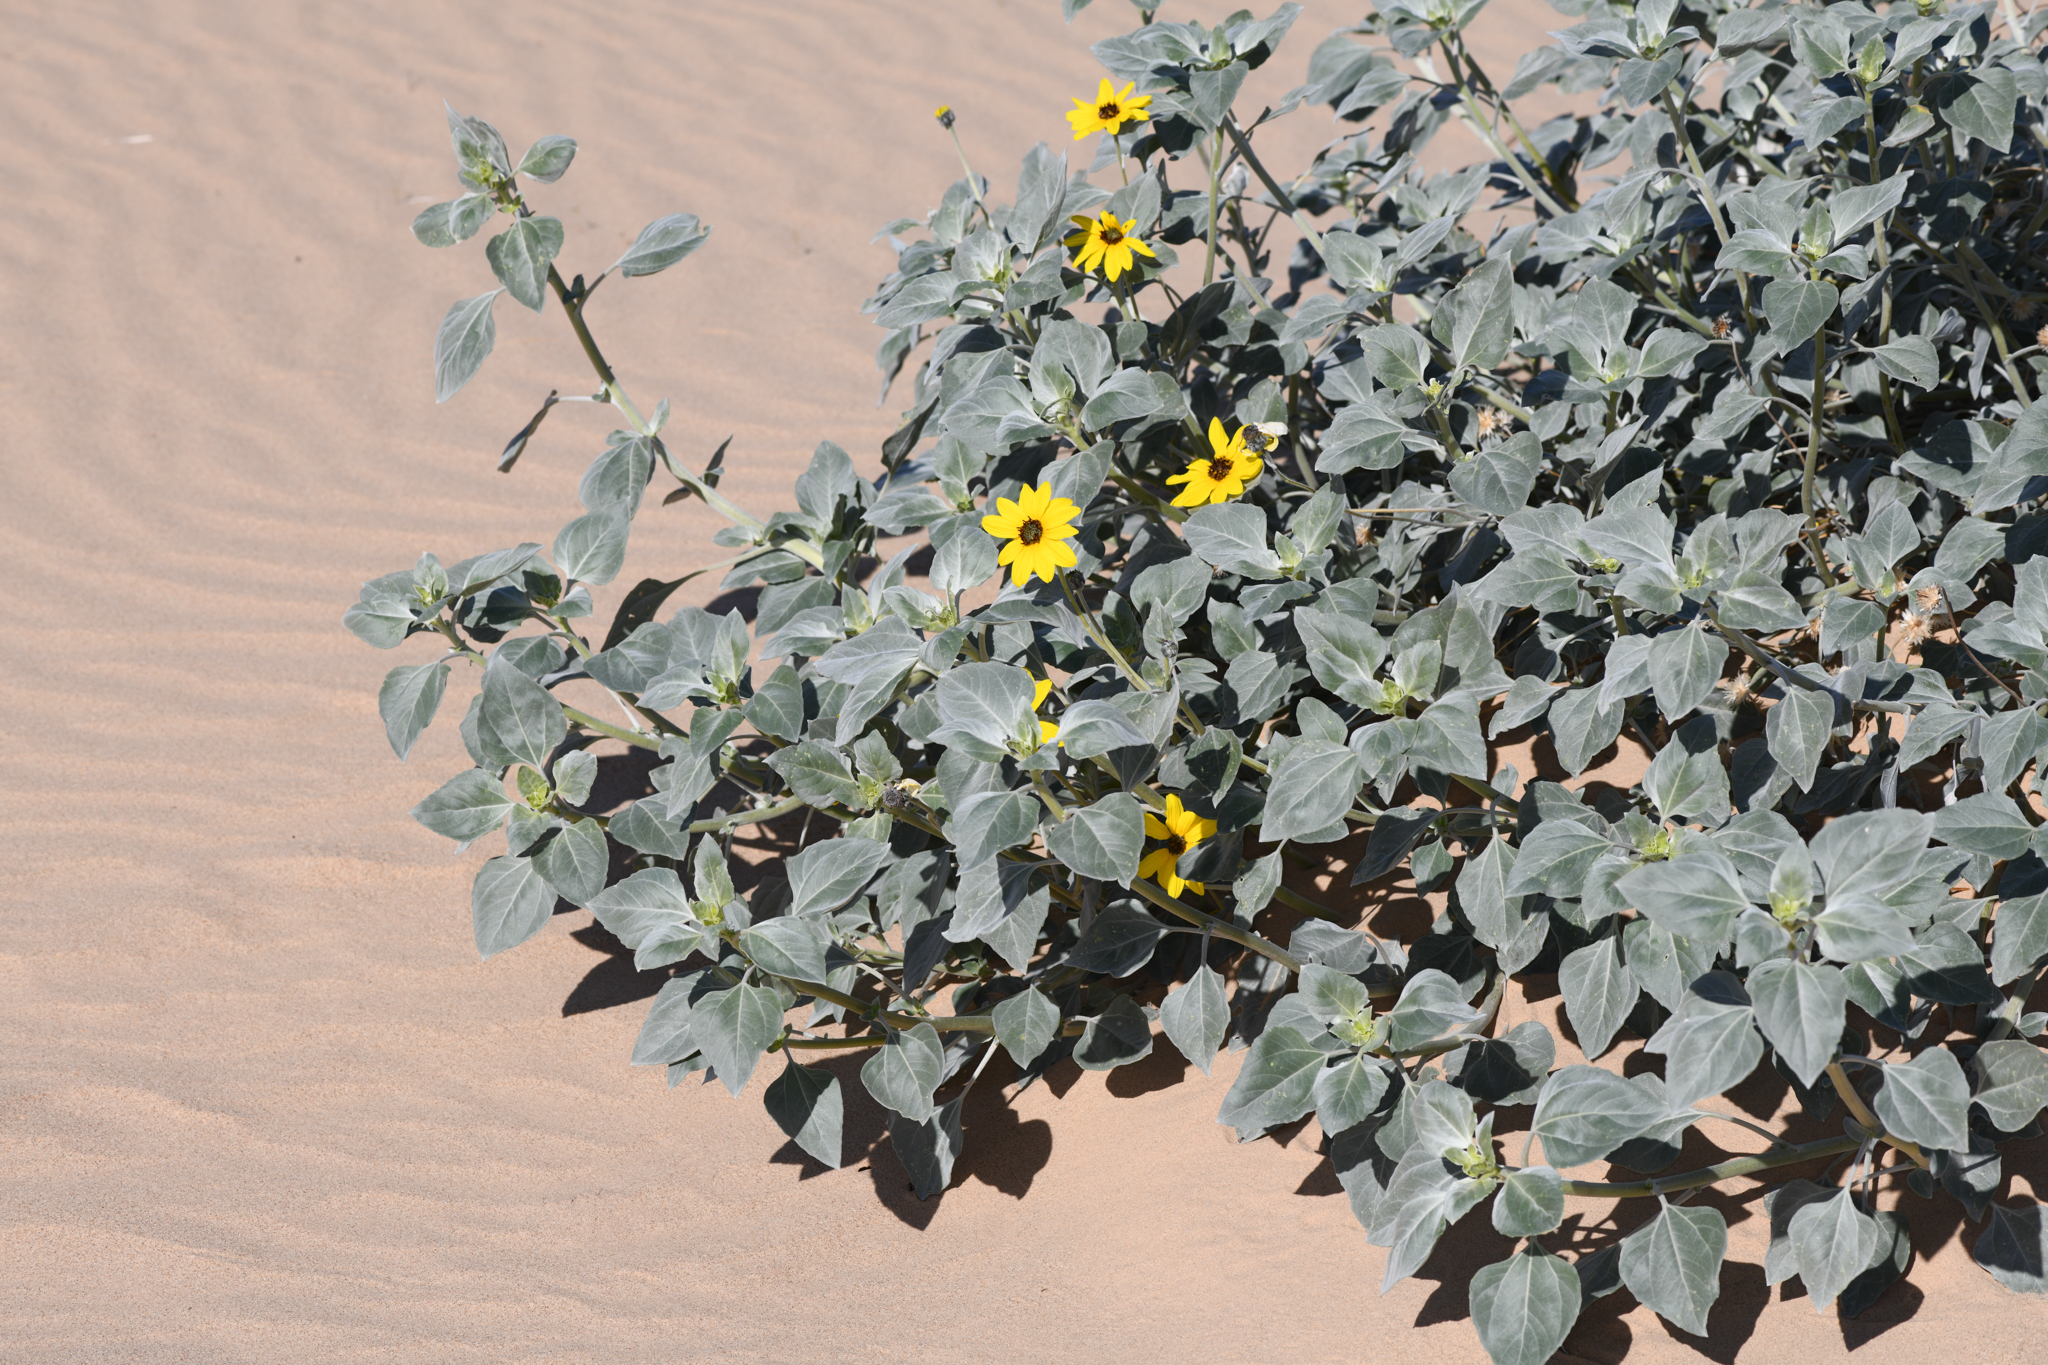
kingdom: Plantae
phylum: Tracheophyta
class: Magnoliopsida
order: Asterales
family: Asteraceae
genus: Helianthus
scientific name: Helianthus niveus
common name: Snowy sunflower
